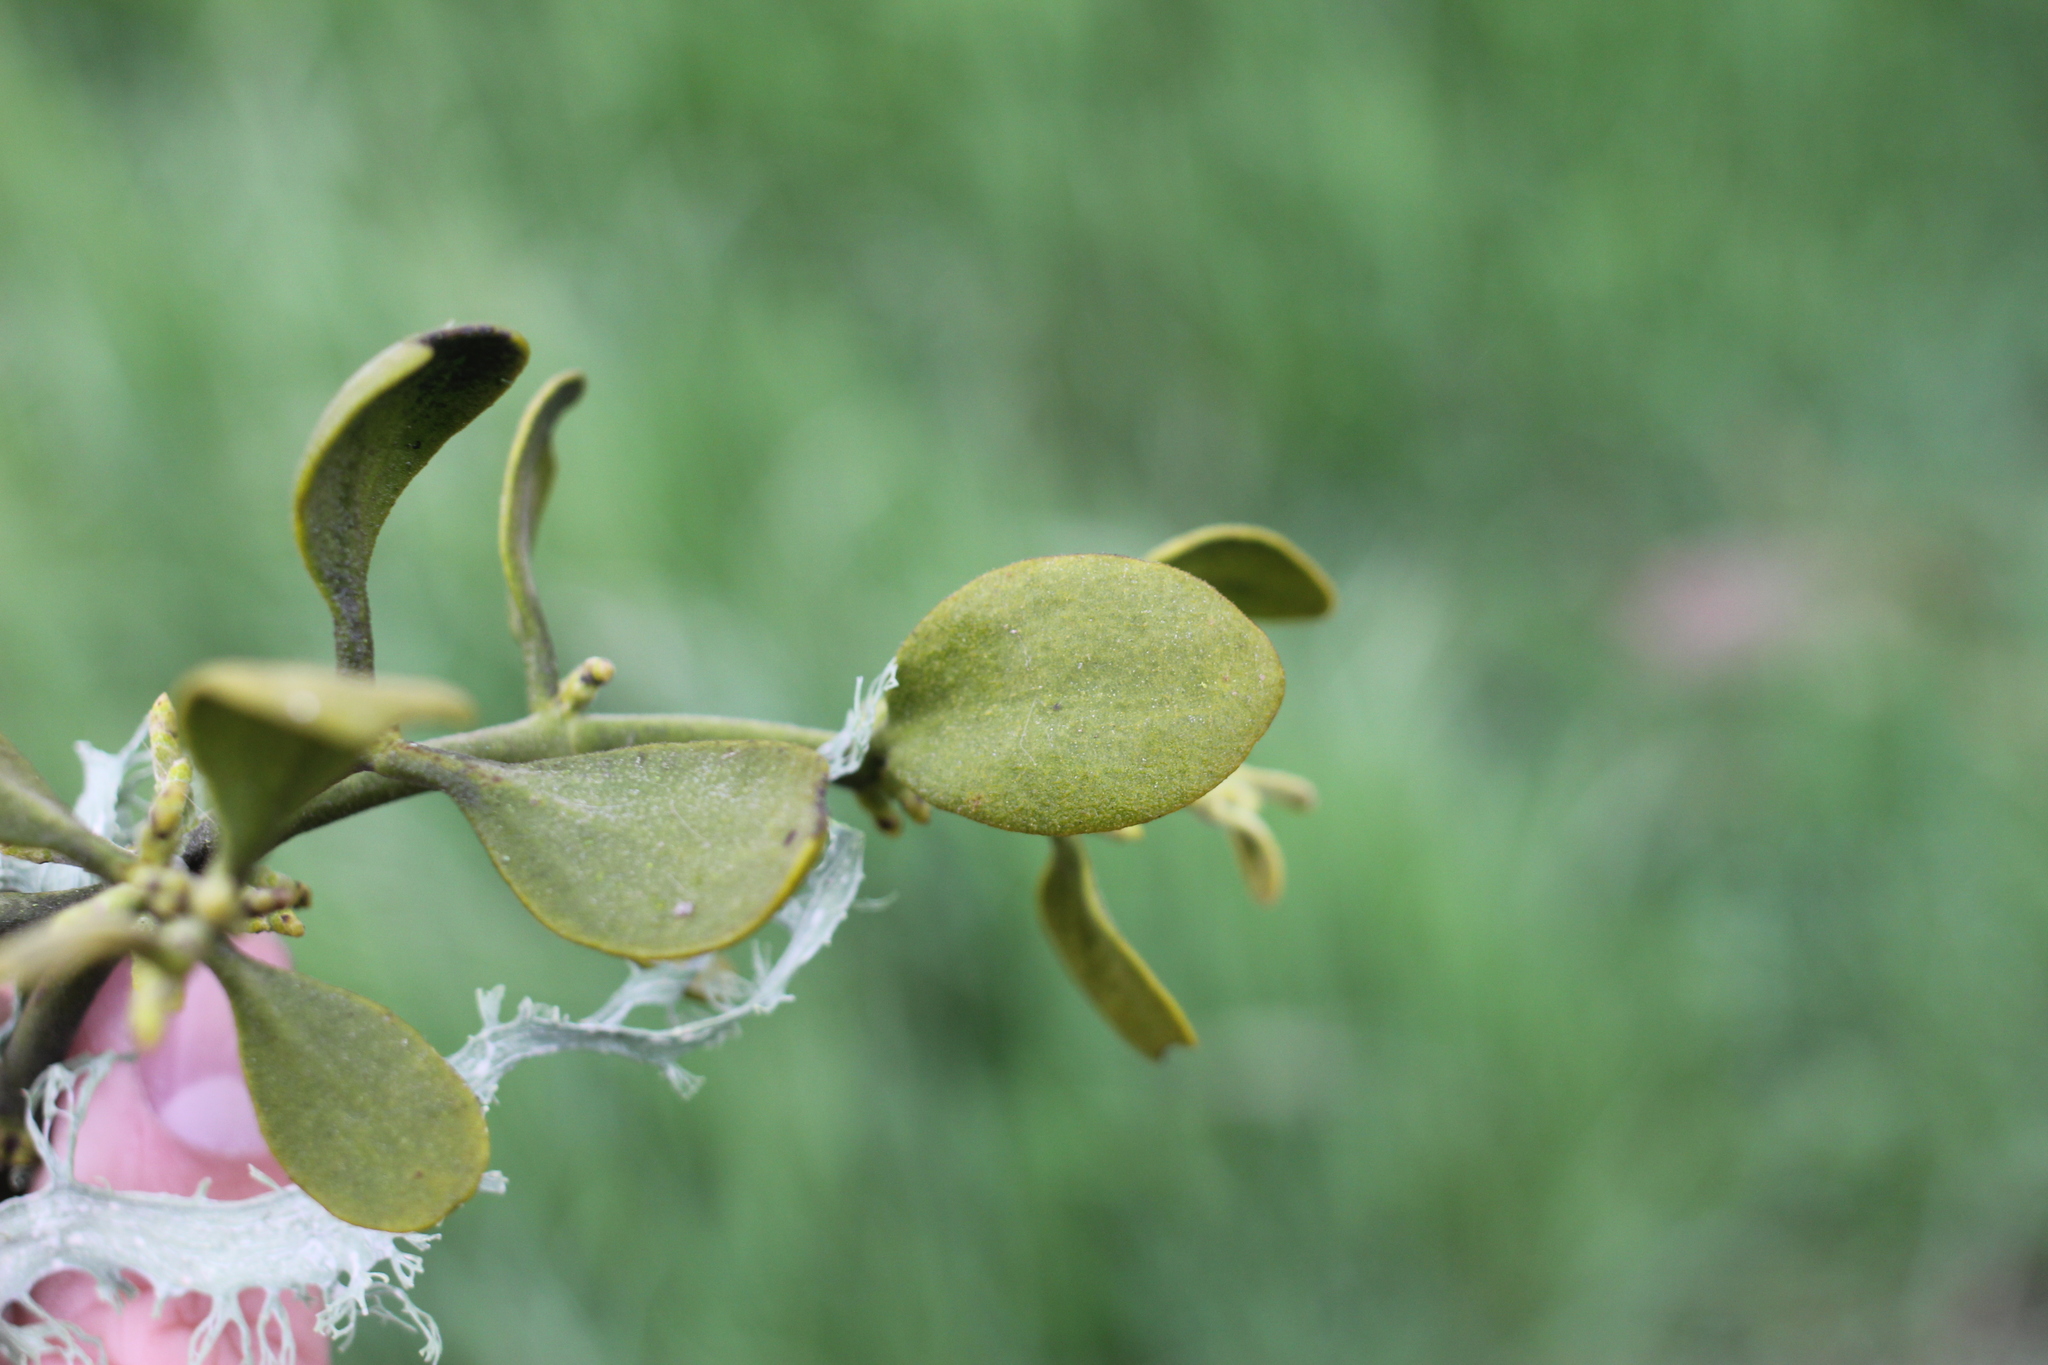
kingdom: Plantae
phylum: Tracheophyta
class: Magnoliopsida
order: Santalales
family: Viscaceae
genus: Phoradendron
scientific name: Phoradendron leucarpum
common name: Pacific mistletoe
